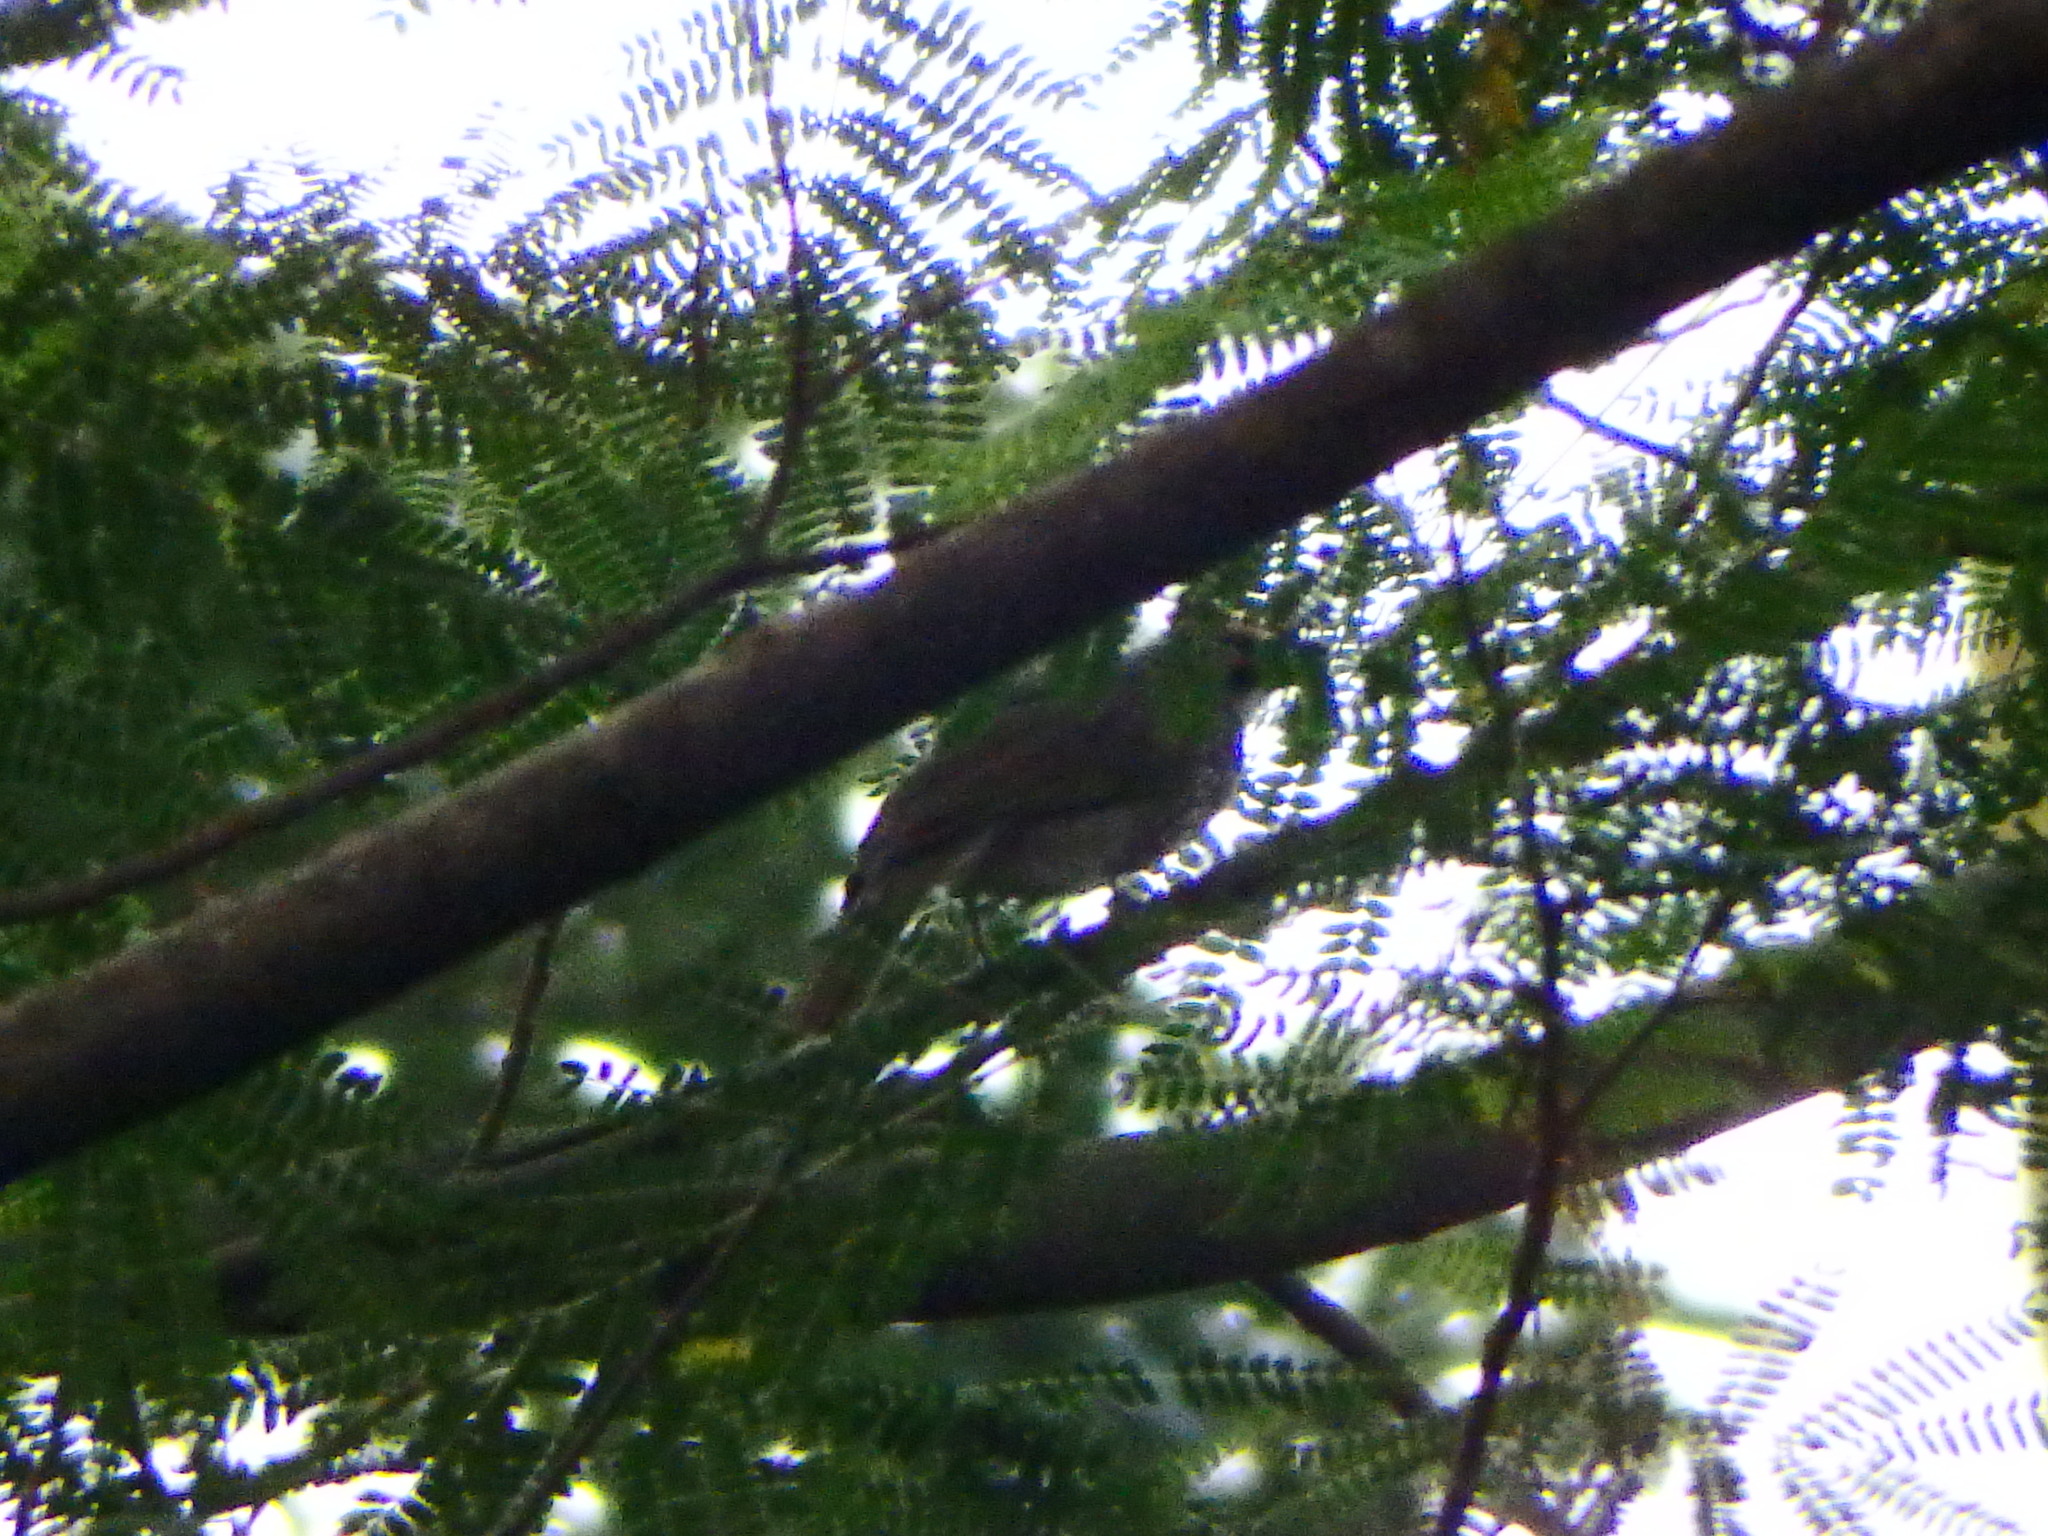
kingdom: Animalia
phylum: Chordata
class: Aves
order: Passeriformes
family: Pycnonotidae
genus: Pycnonotus
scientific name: Pycnonotus zeylanicus
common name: Straw-headed bulbul
